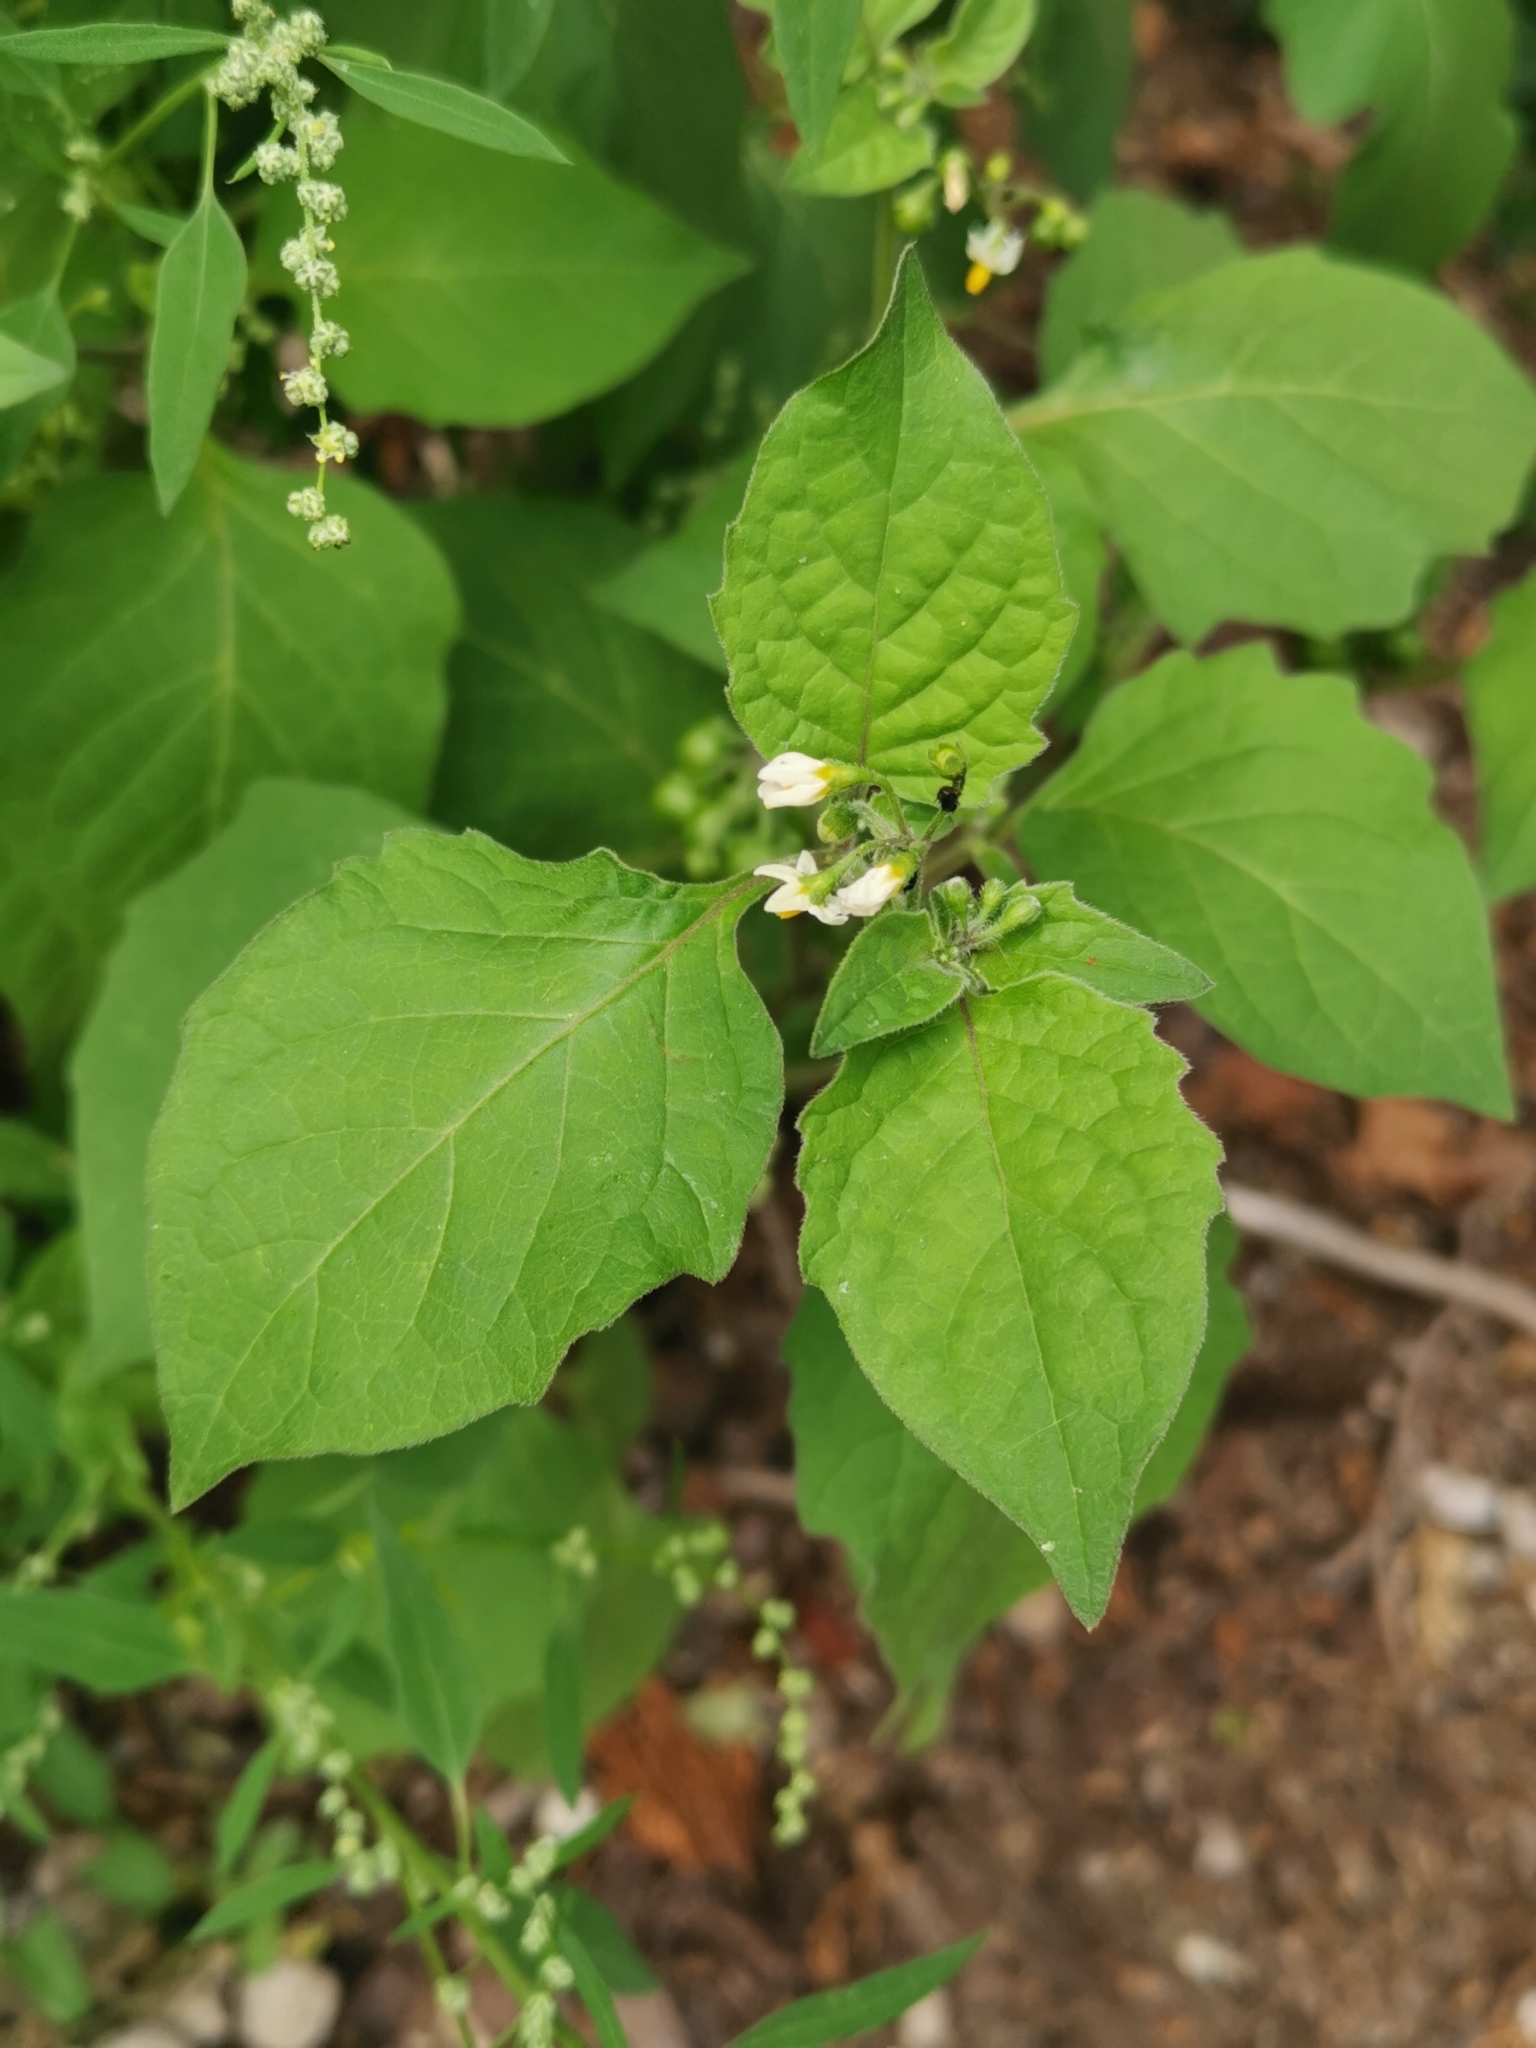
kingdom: Plantae
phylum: Tracheophyta
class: Magnoliopsida
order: Solanales
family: Solanaceae
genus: Solanum
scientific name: Solanum nigrum
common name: Black nightshade
